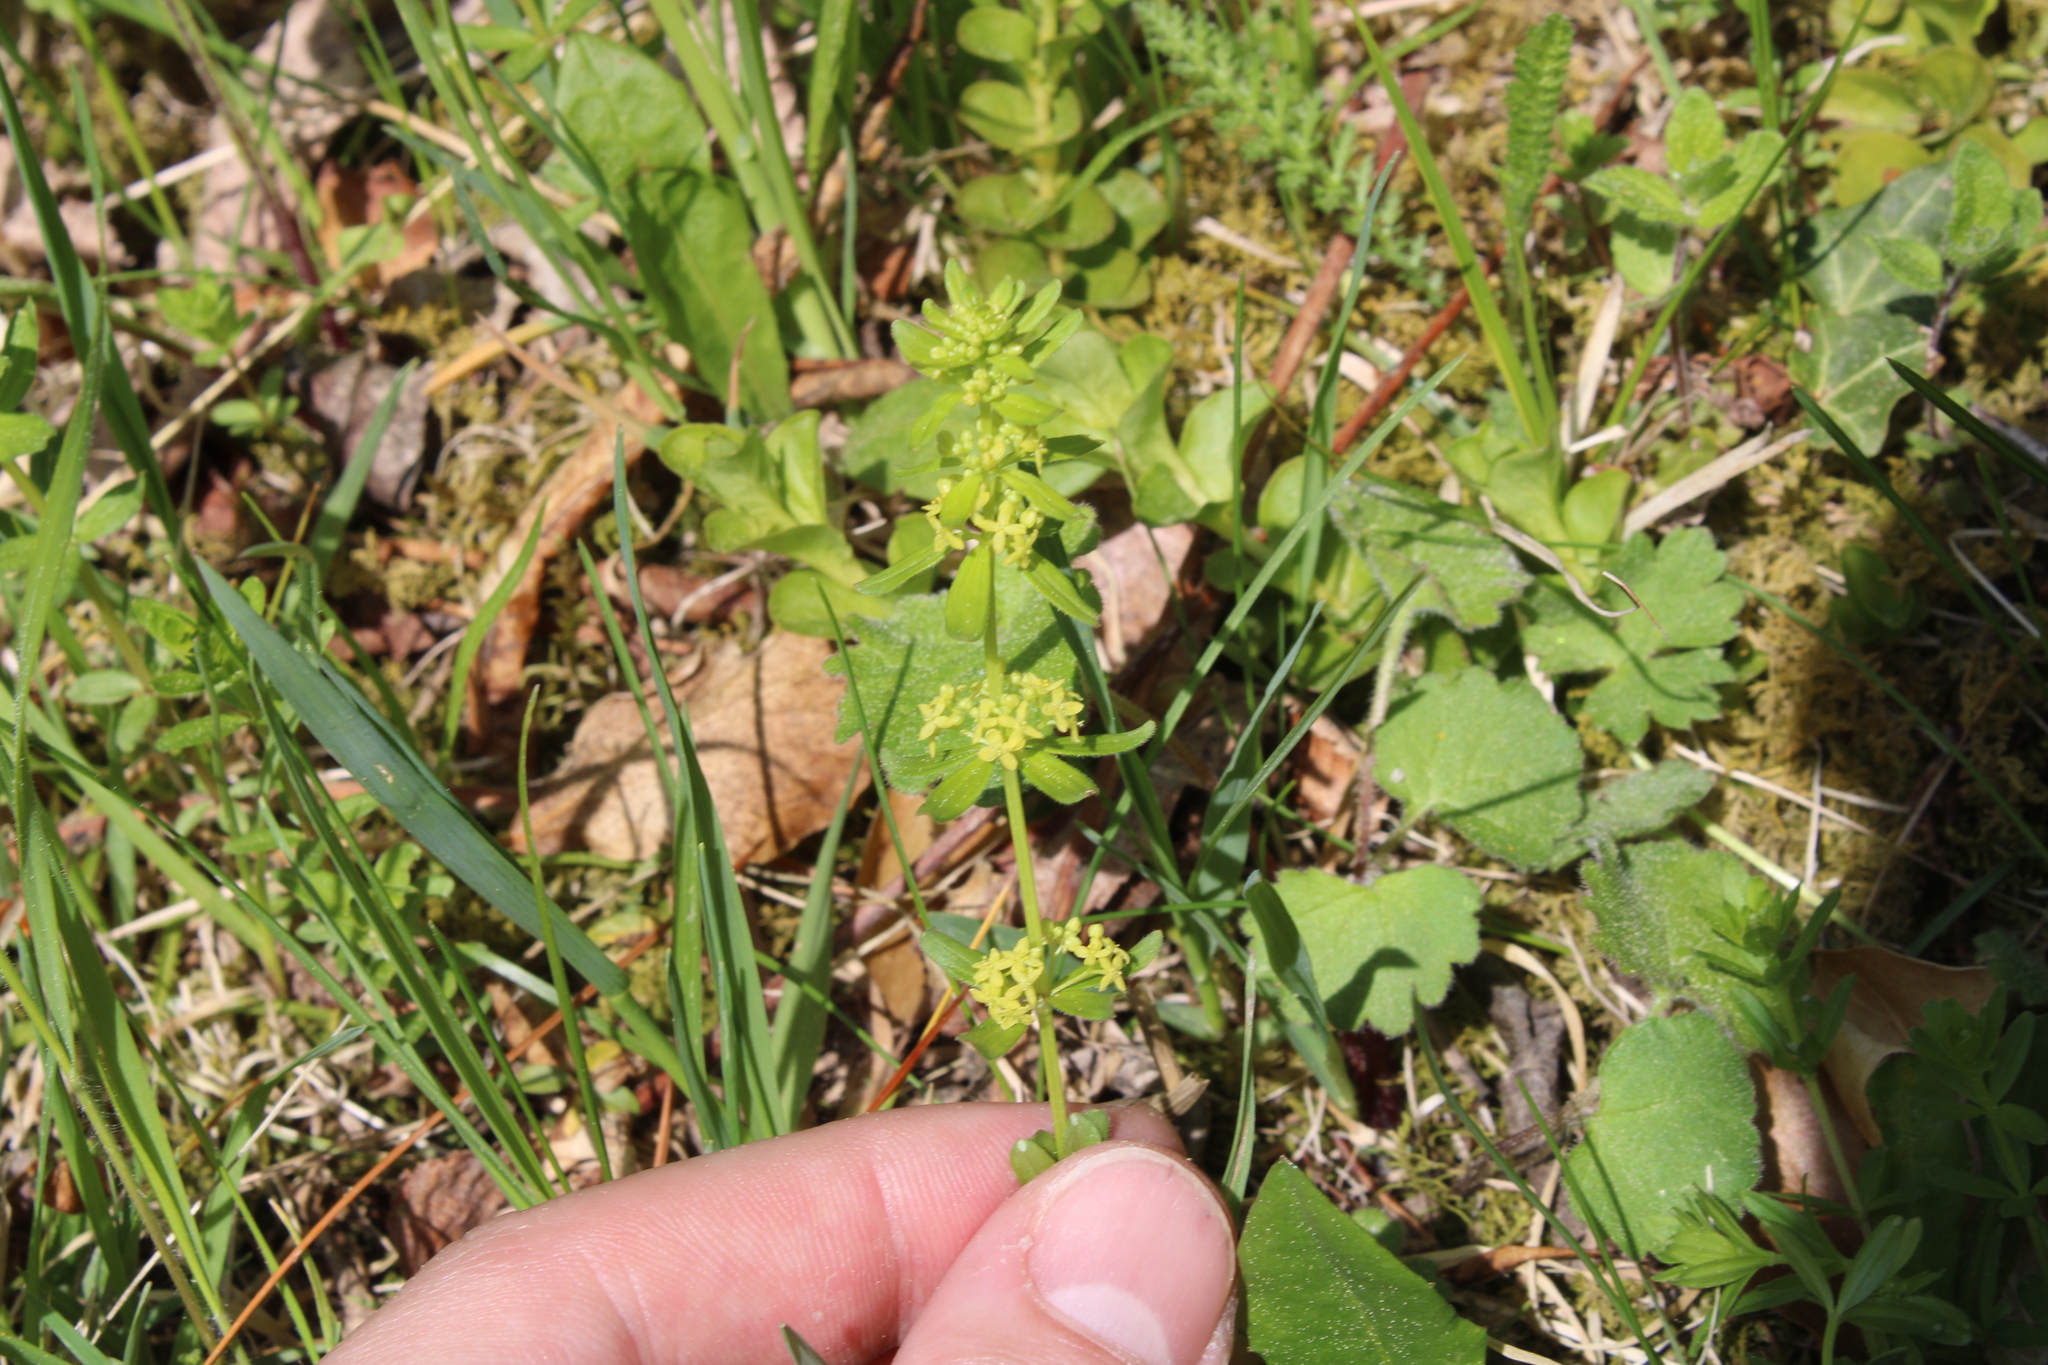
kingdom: Plantae
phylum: Tracheophyta
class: Magnoliopsida
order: Gentianales
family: Rubiaceae
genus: Cruciata
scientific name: Cruciata glabra
